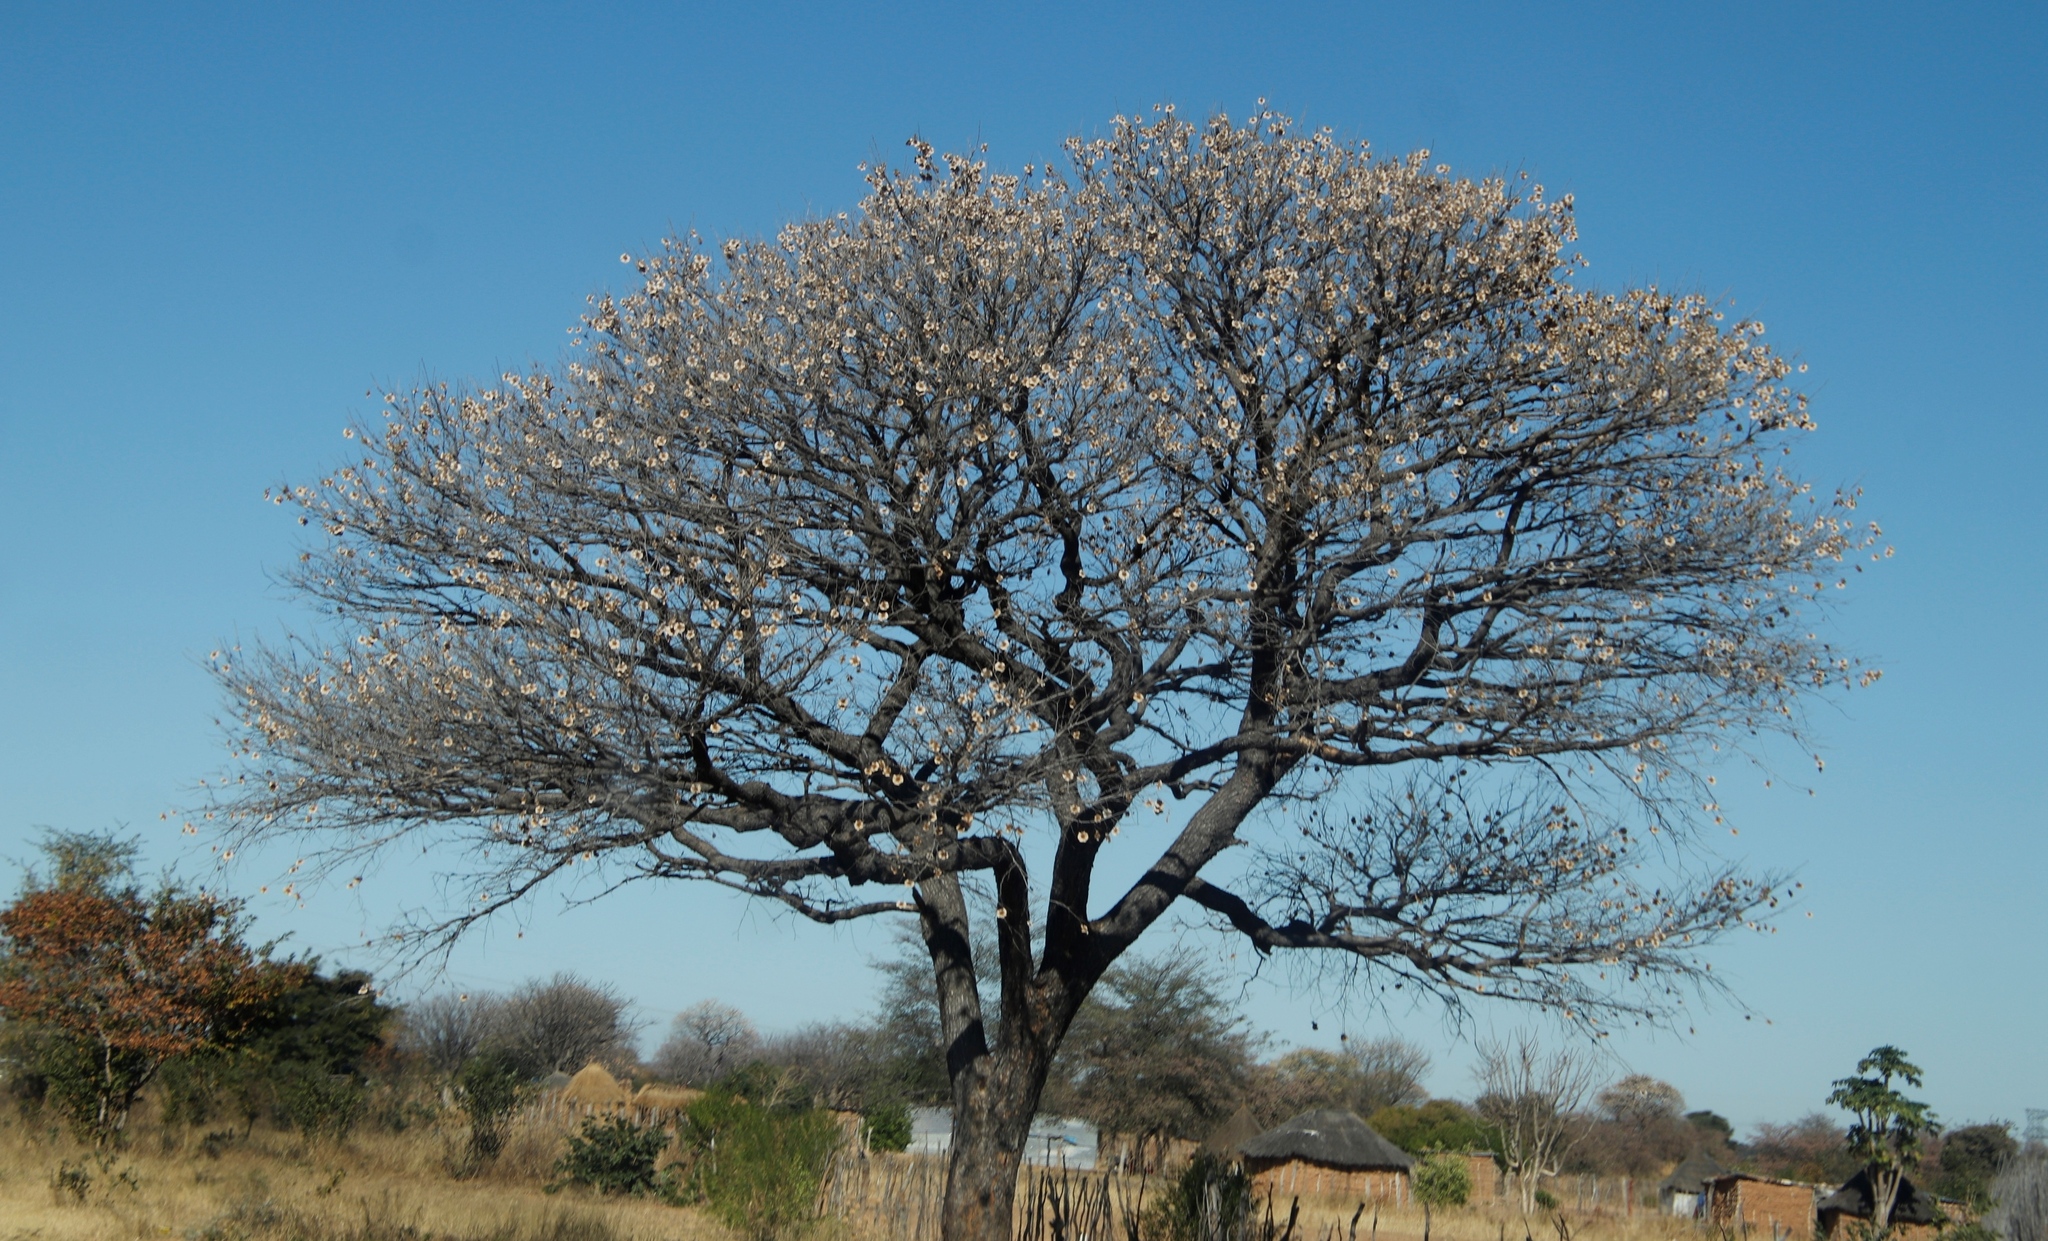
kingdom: Plantae
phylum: Tracheophyta
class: Magnoliopsida
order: Fabales
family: Fabaceae
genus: Pterocarpus
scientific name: Pterocarpus angolensis
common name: Bloodwood tree
